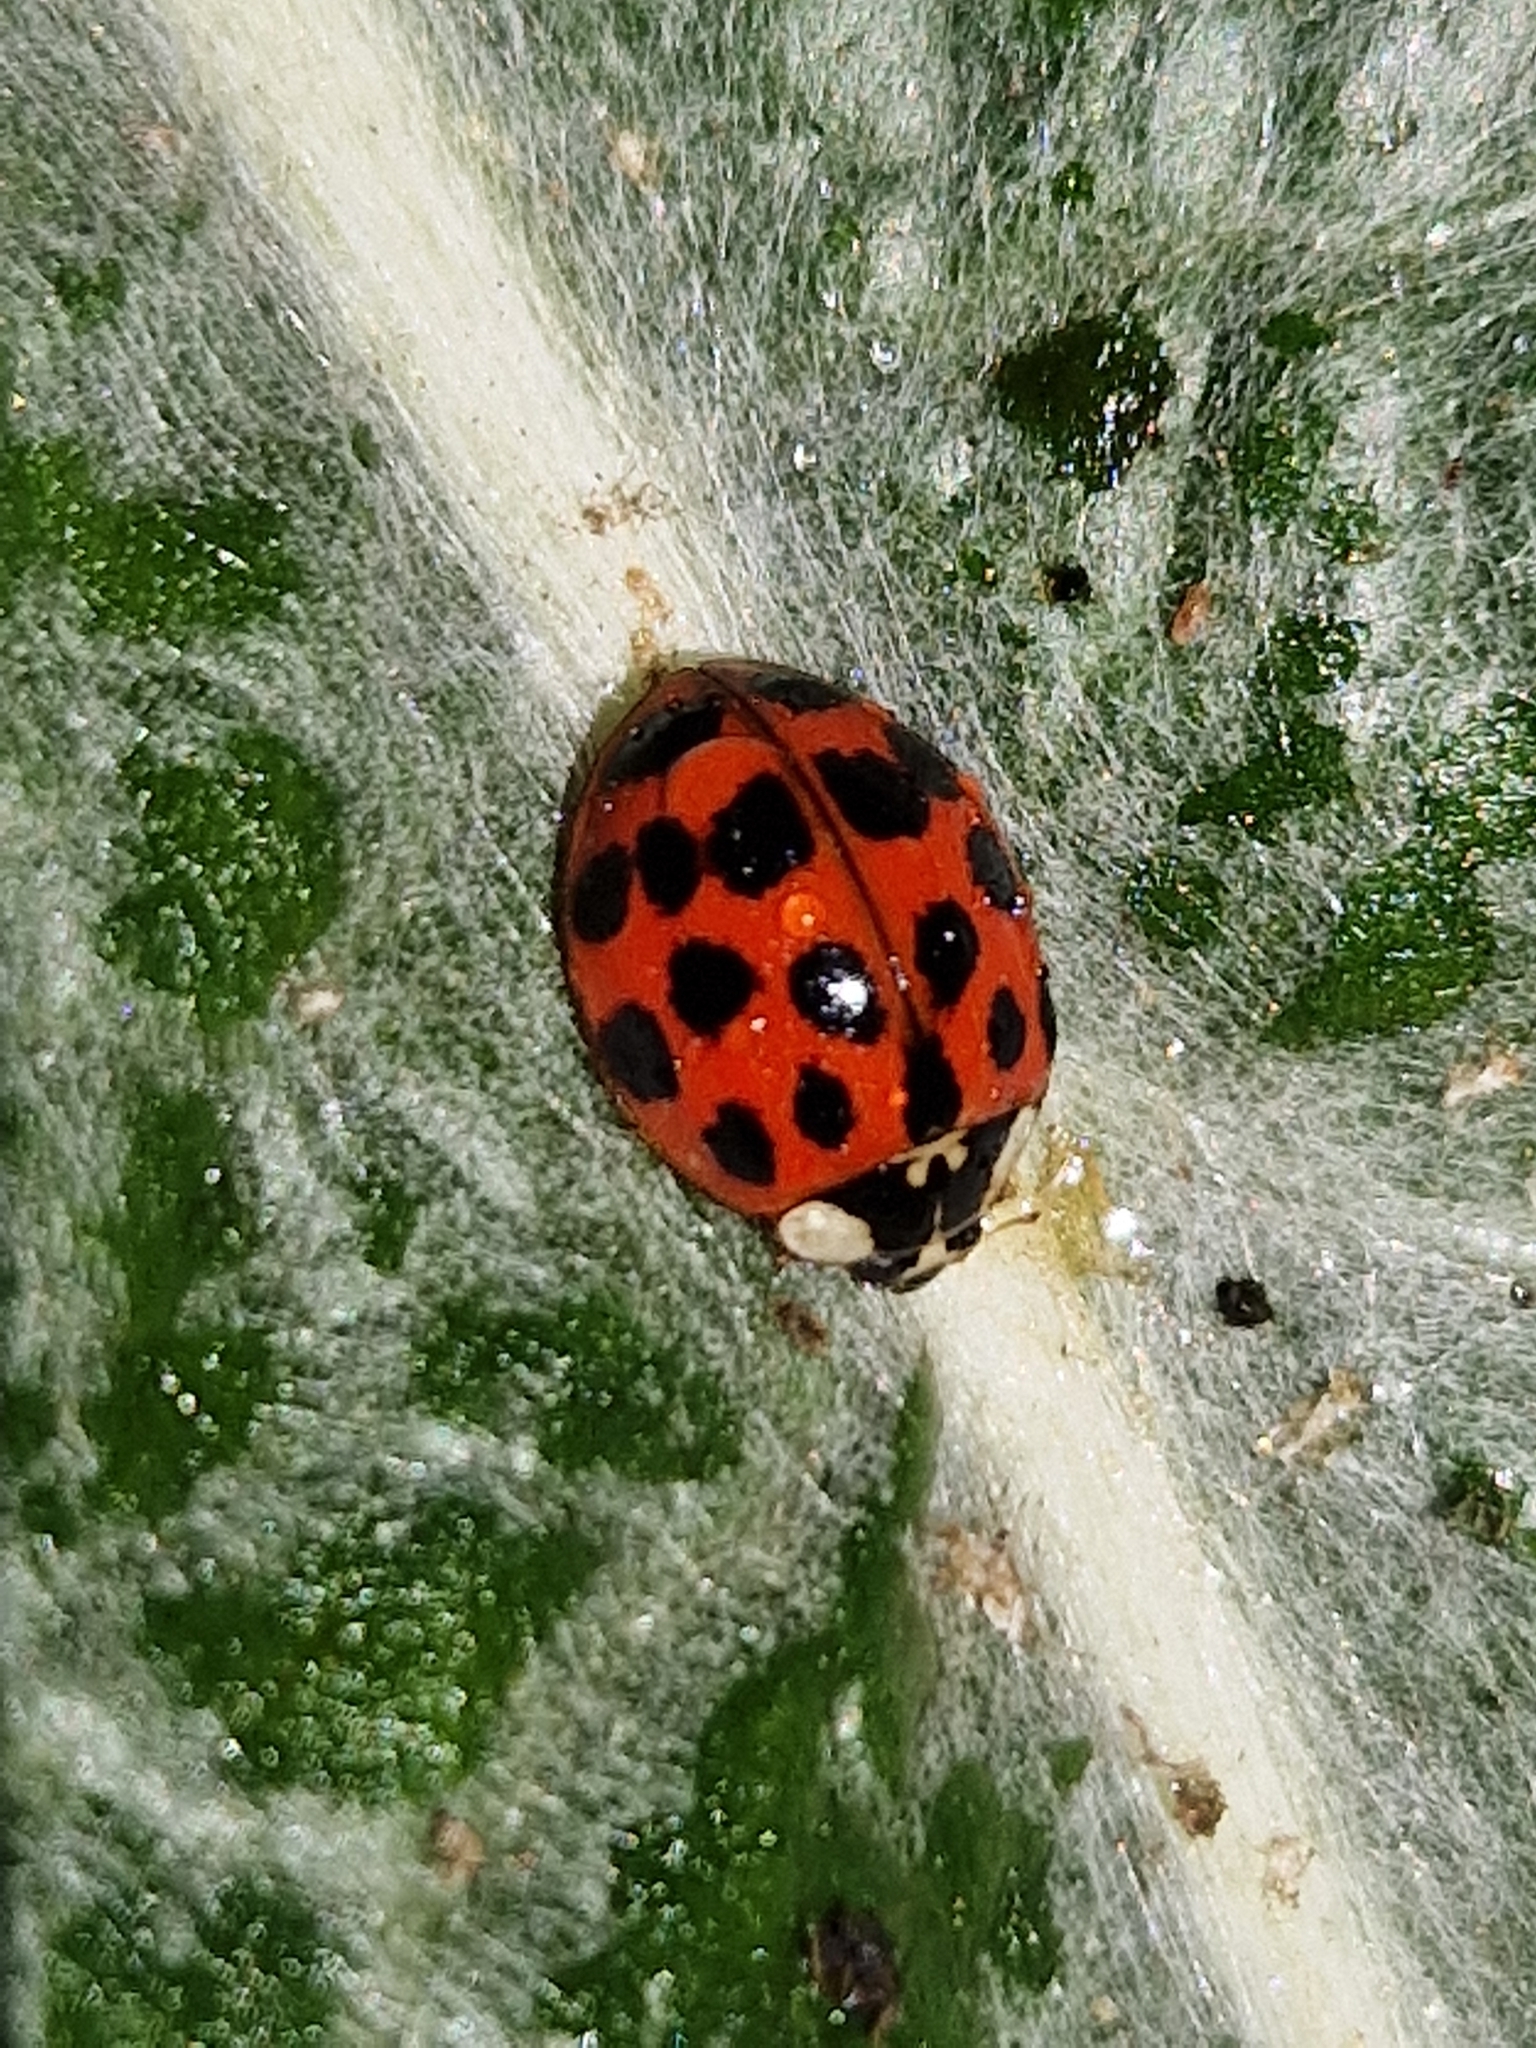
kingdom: Animalia
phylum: Arthropoda
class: Insecta
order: Coleoptera
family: Coccinellidae
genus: Harmonia
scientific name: Harmonia axyridis
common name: Harlequin ladybird
